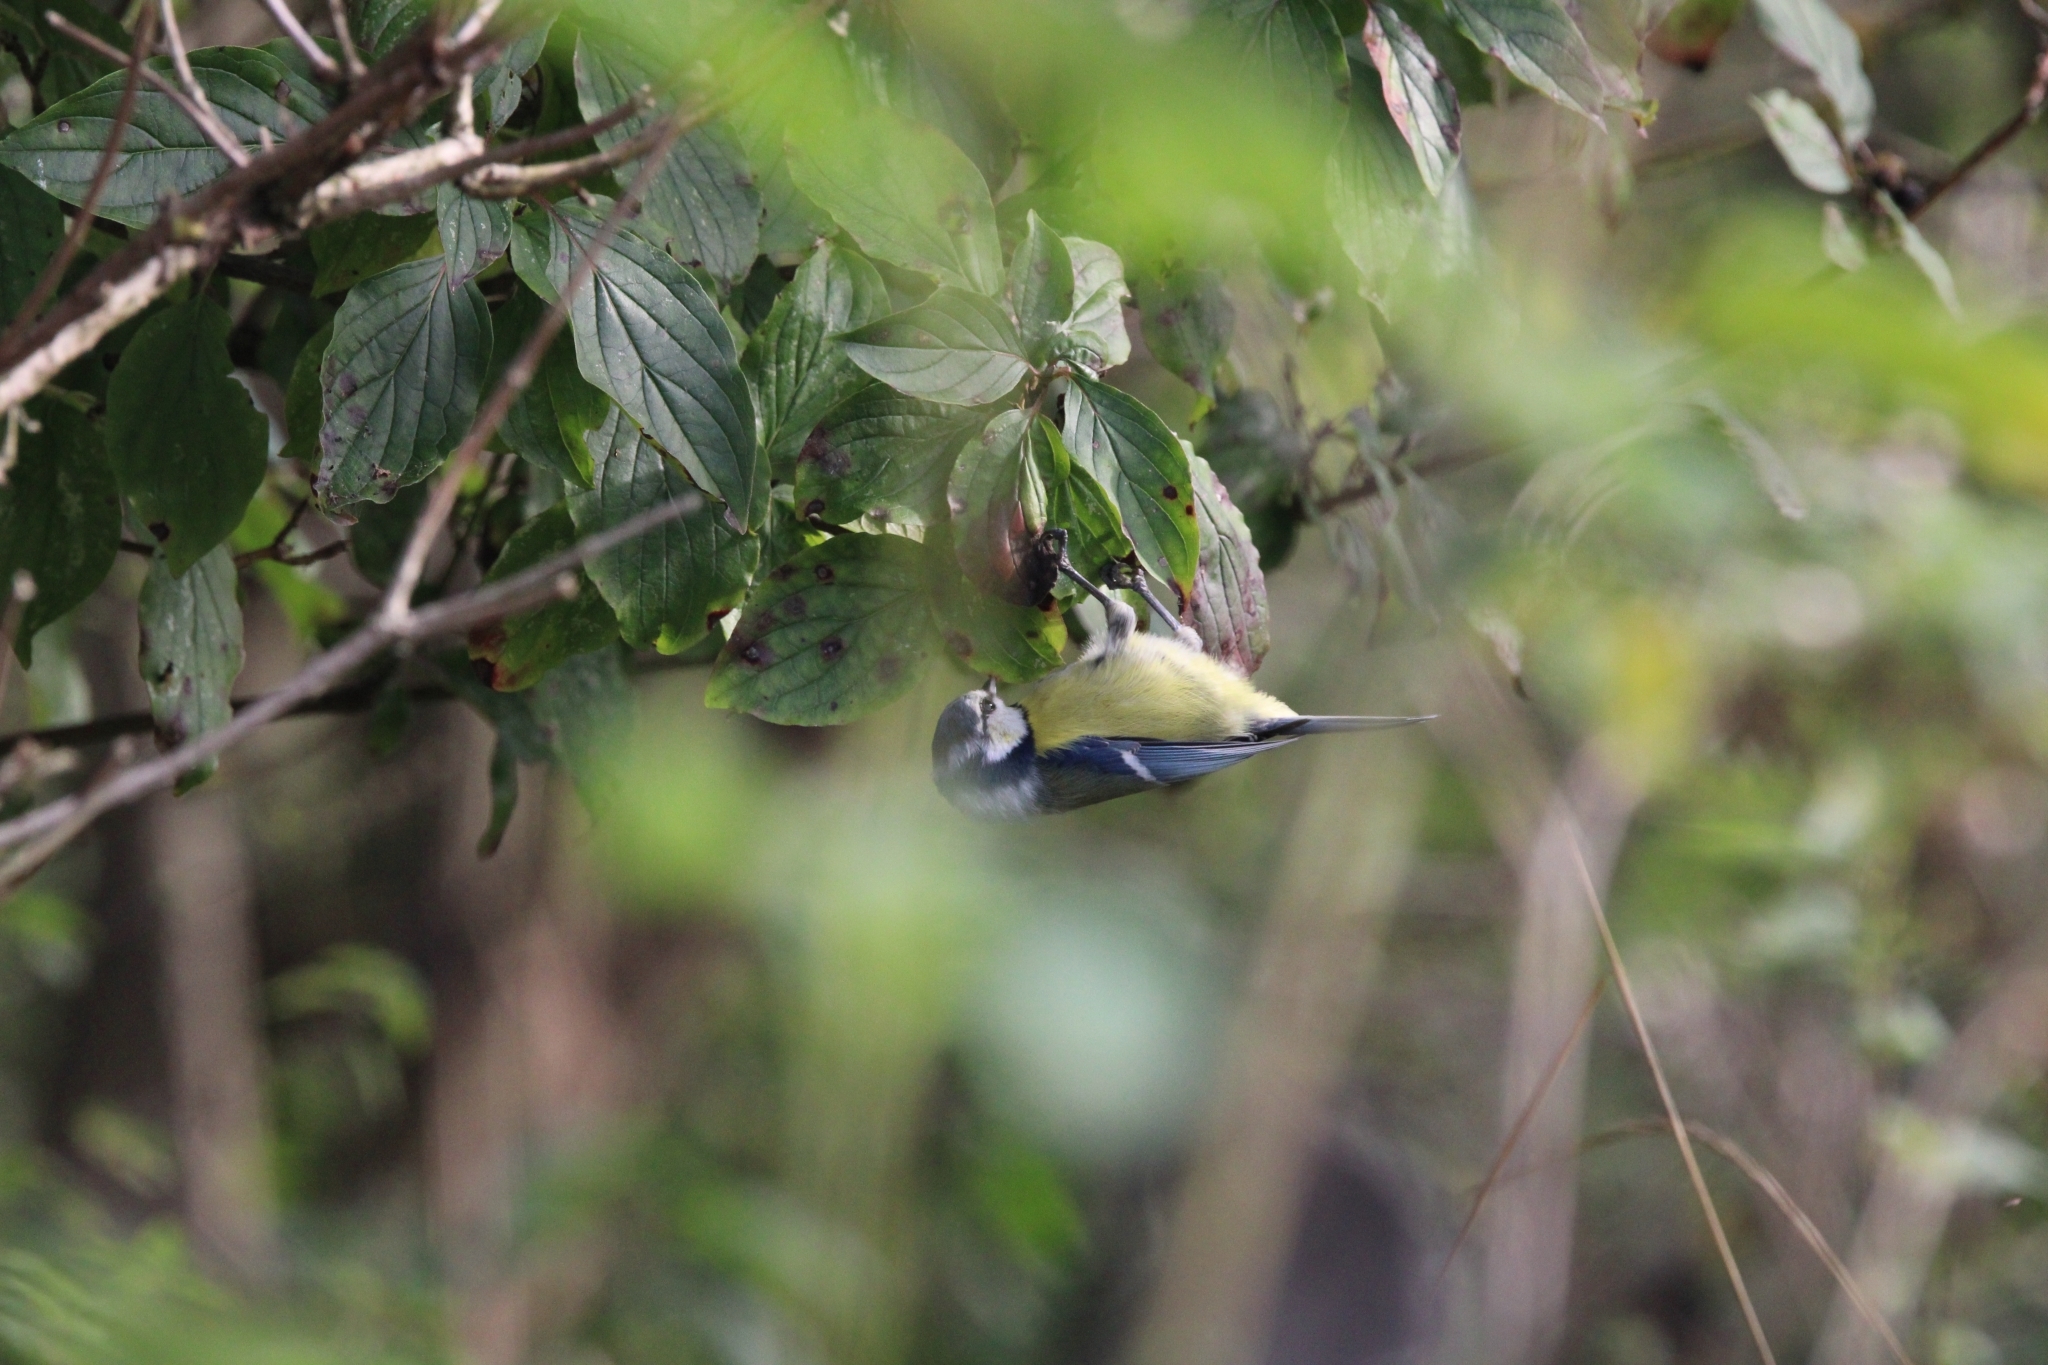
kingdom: Animalia
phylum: Chordata
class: Aves
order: Passeriformes
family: Paridae
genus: Cyanistes
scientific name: Cyanistes caeruleus
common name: Eurasian blue tit
